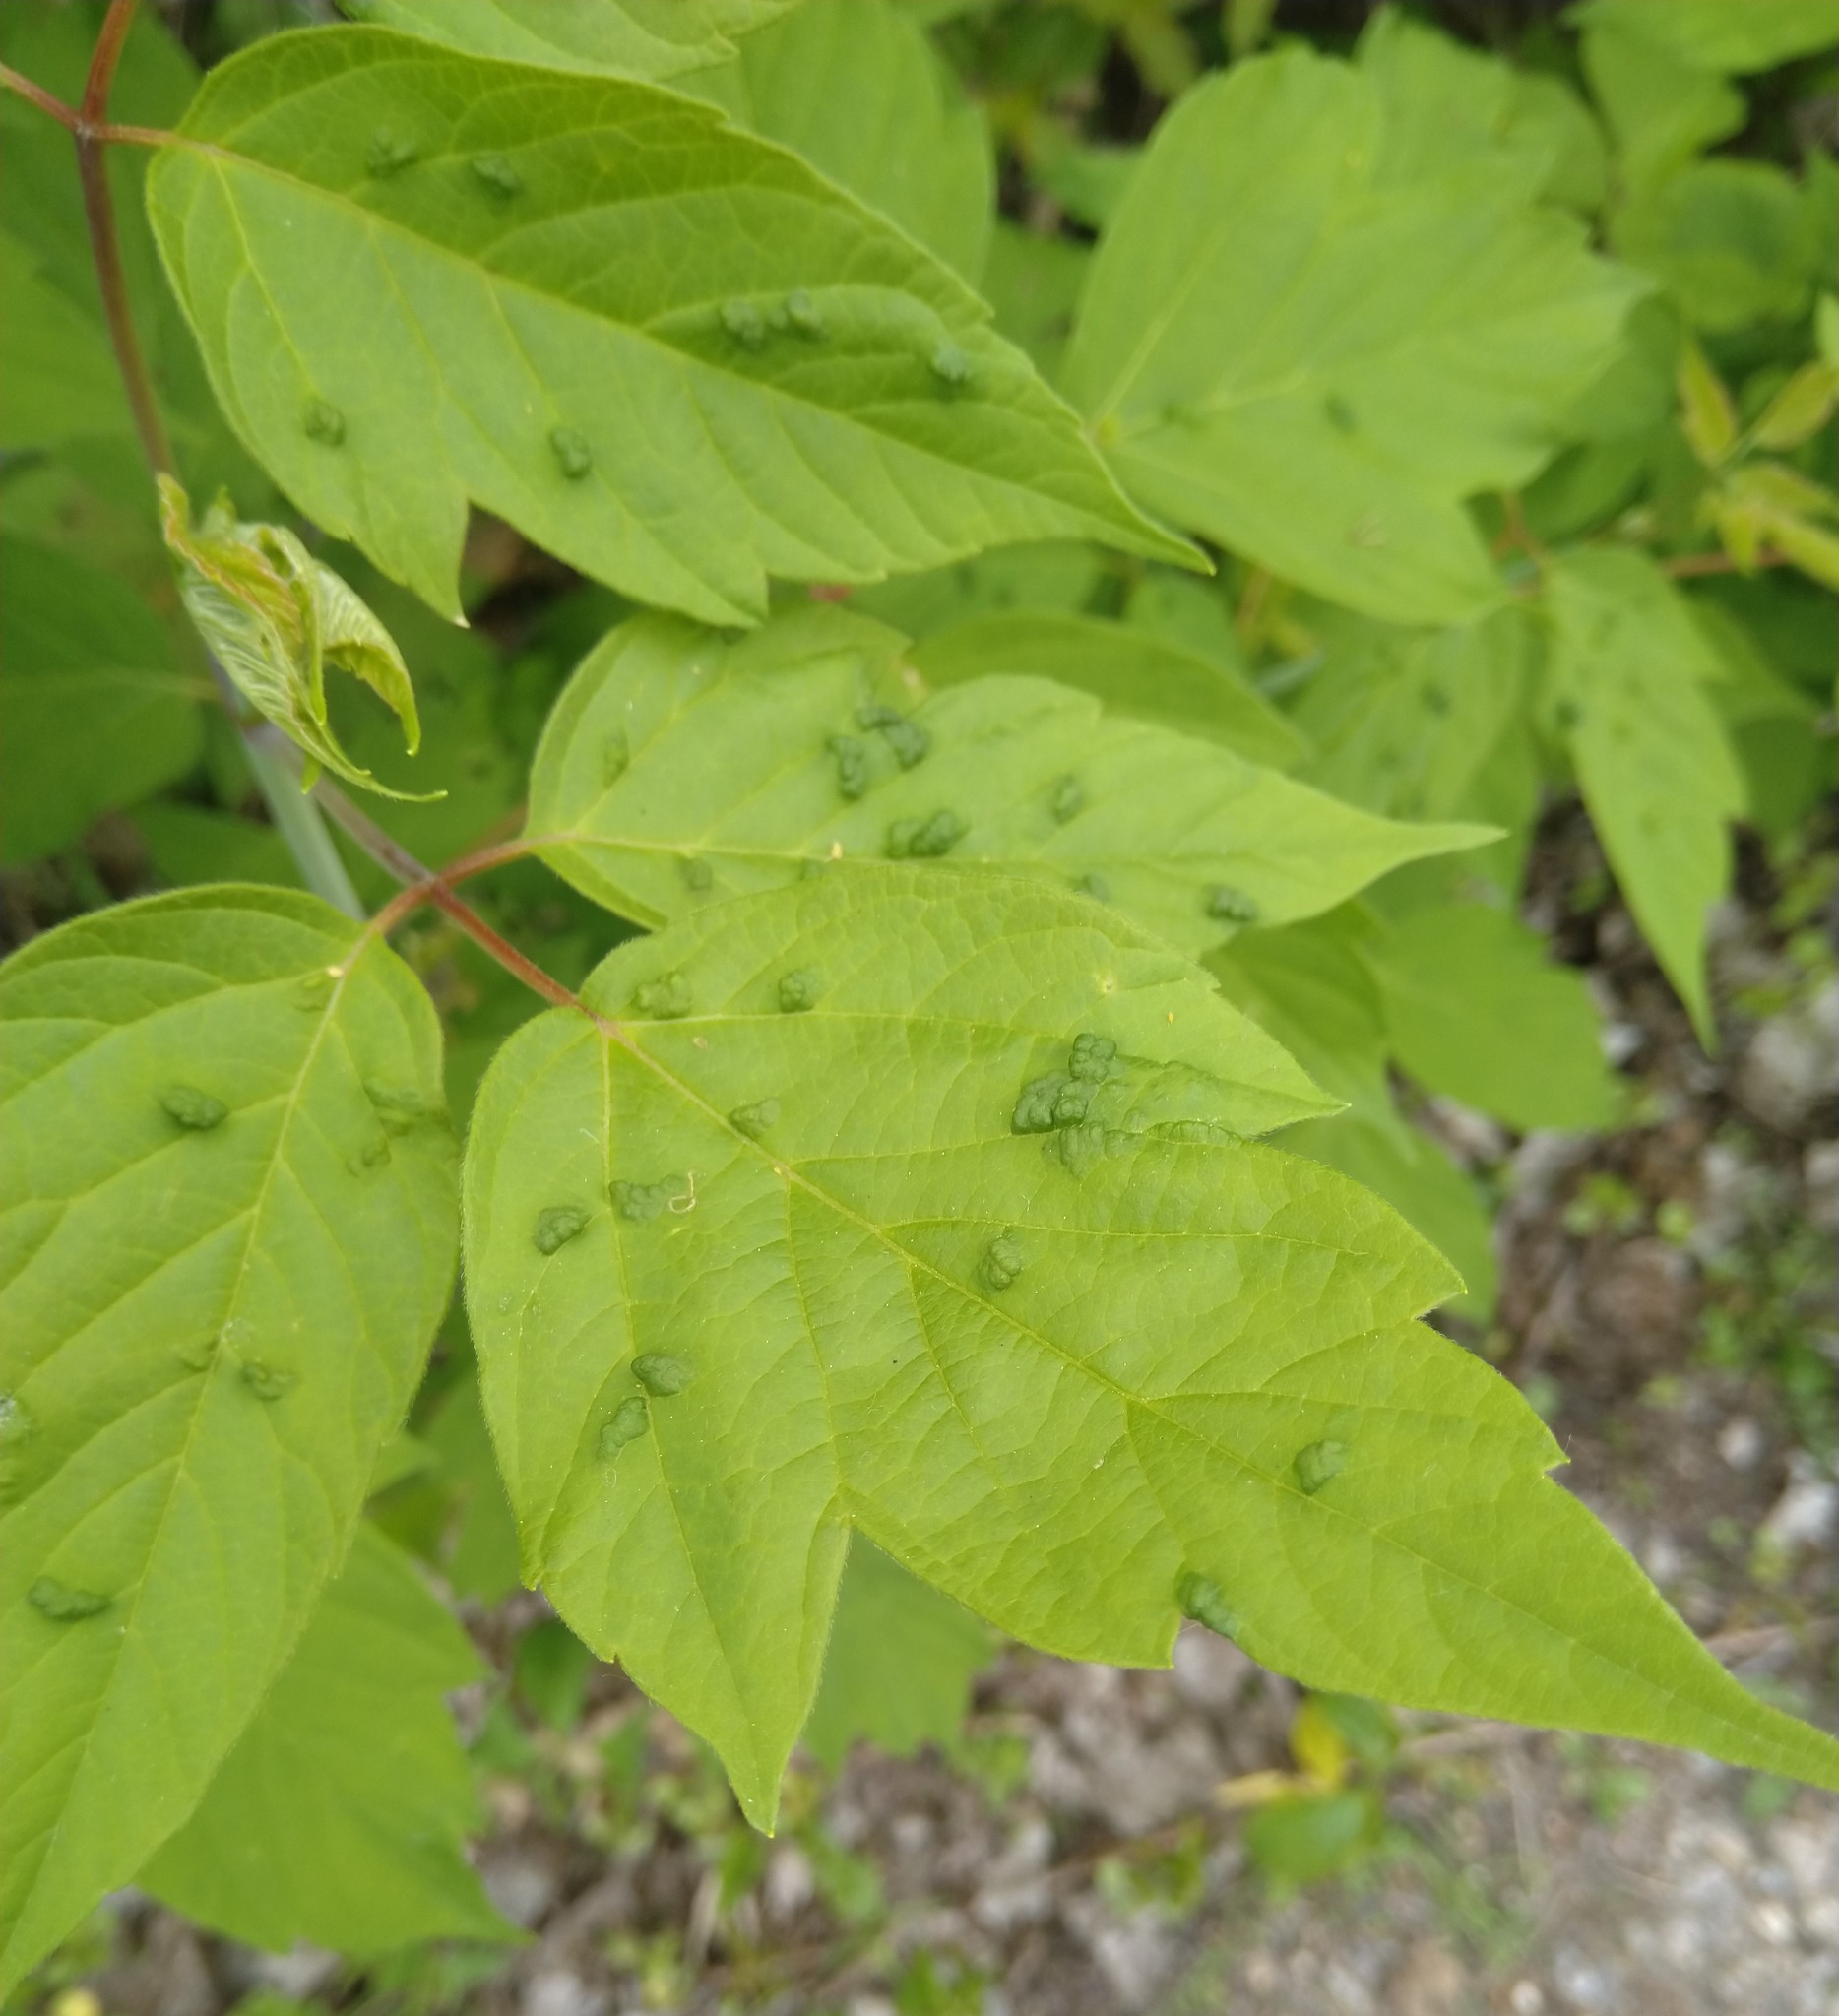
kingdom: Animalia
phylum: Arthropoda
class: Arachnida
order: Trombidiformes
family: Eriophyidae
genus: Aceria
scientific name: Aceria
